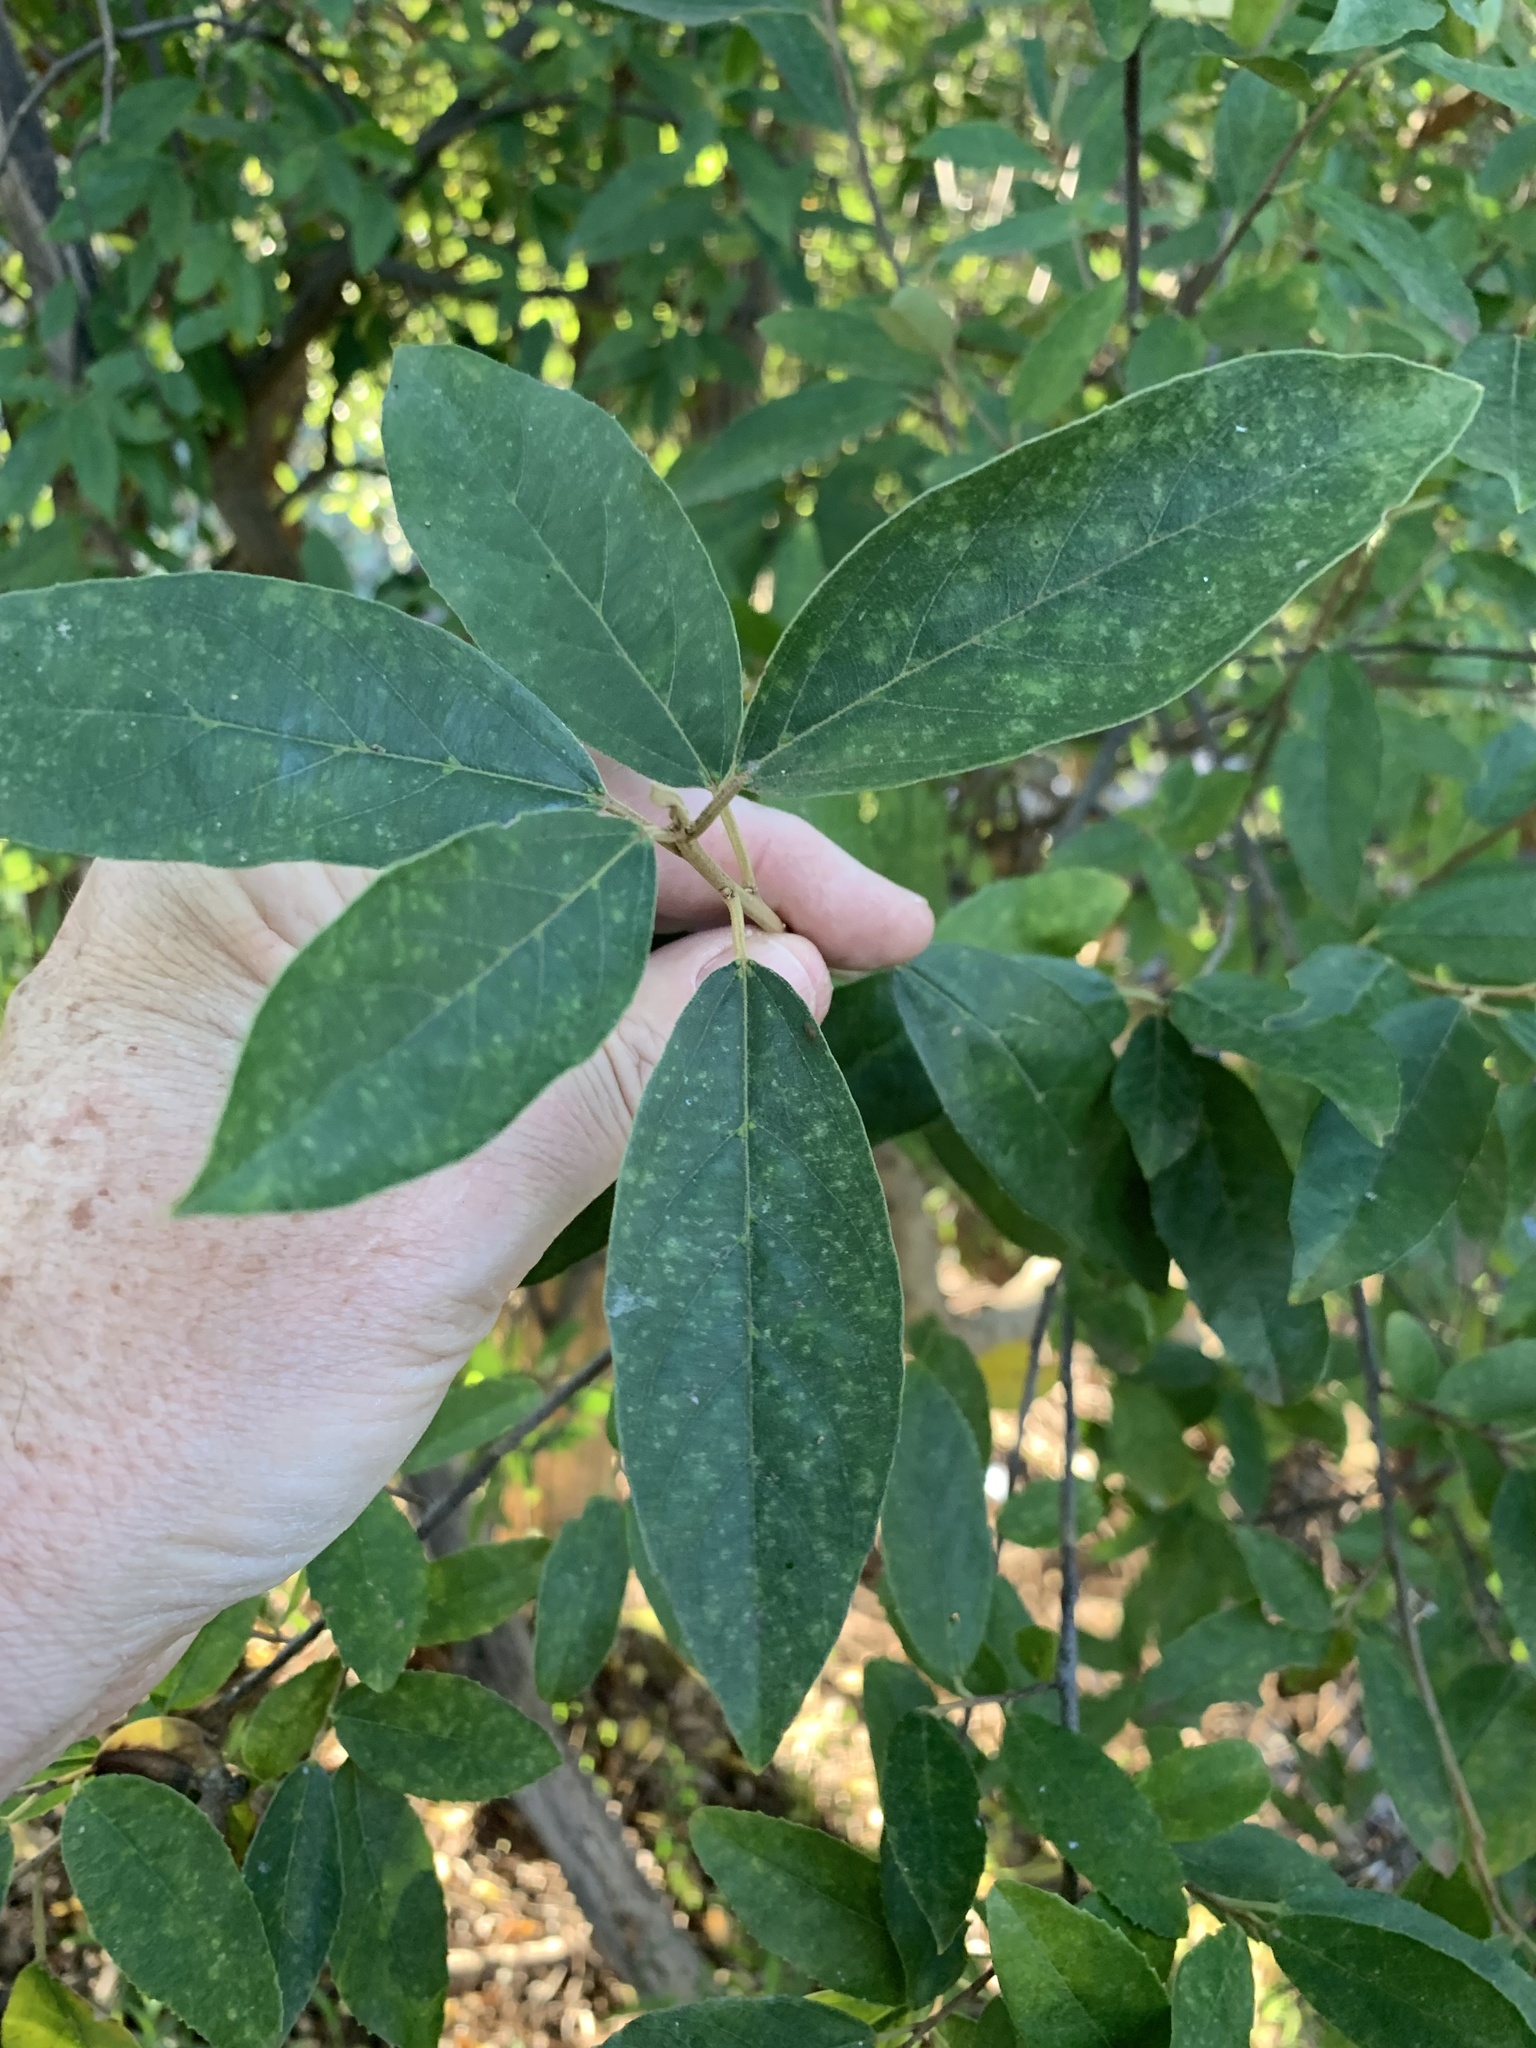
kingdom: Plantae
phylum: Tracheophyta
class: Magnoliopsida
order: Malpighiales
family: Achariaceae
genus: Kiggelaria
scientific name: Kiggelaria africana
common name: Wild peach
